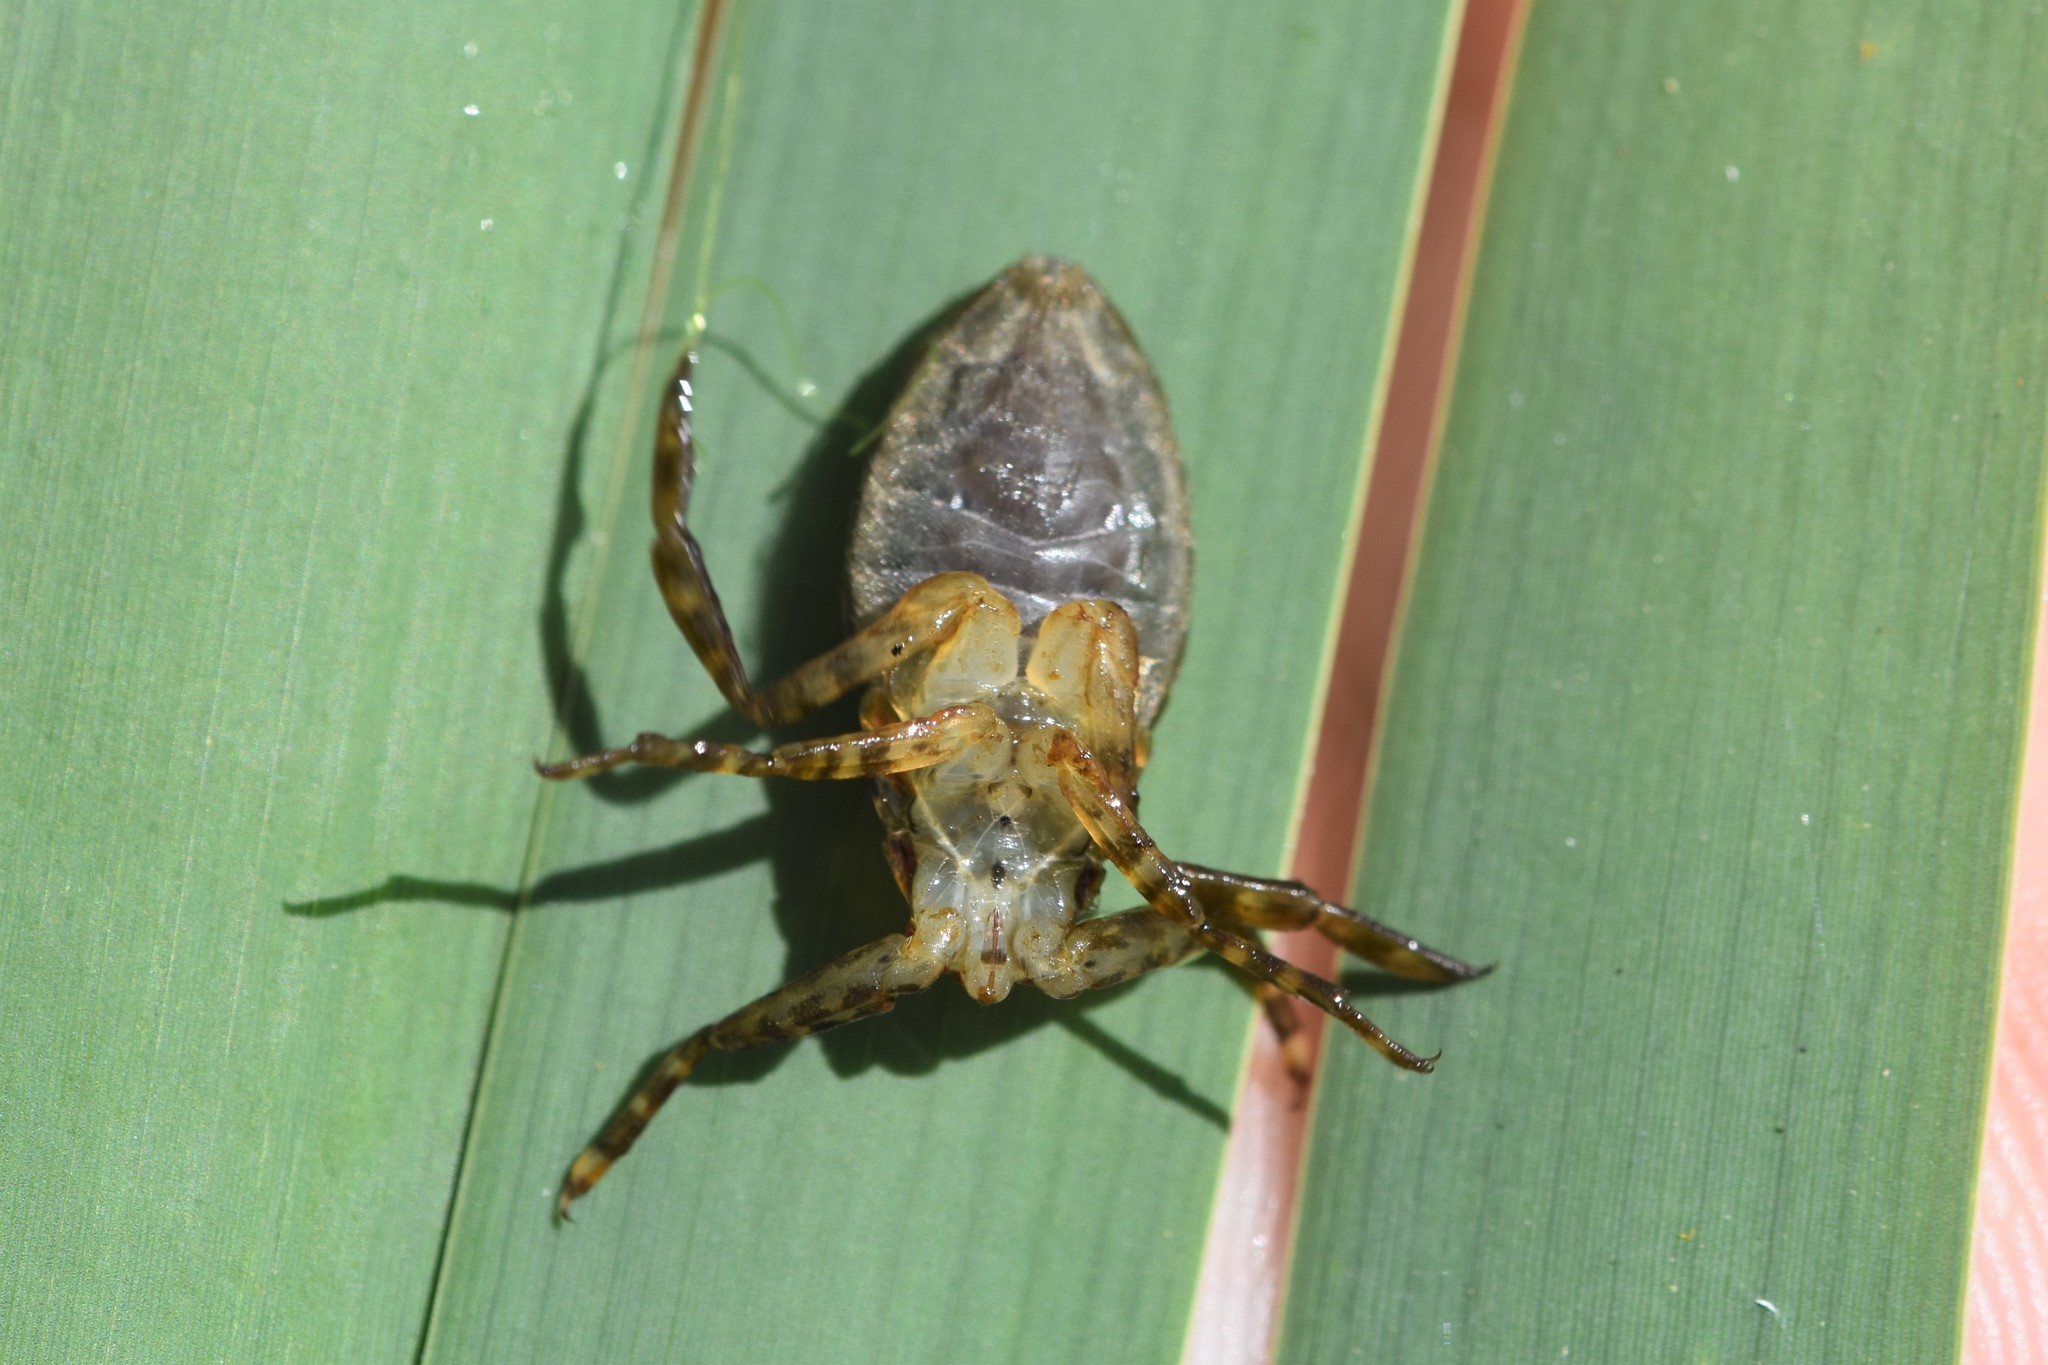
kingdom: Animalia
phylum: Arthropoda
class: Insecta
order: Hemiptera
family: Belostomatidae
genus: Lethocerus
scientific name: Lethocerus americanus
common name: Giant water bug
